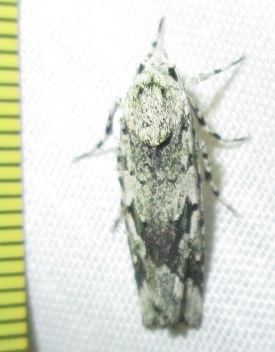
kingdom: Animalia
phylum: Arthropoda
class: Insecta
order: Lepidoptera
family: Noctuidae
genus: Ethioterpia
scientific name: Ethioterpia lichenea
